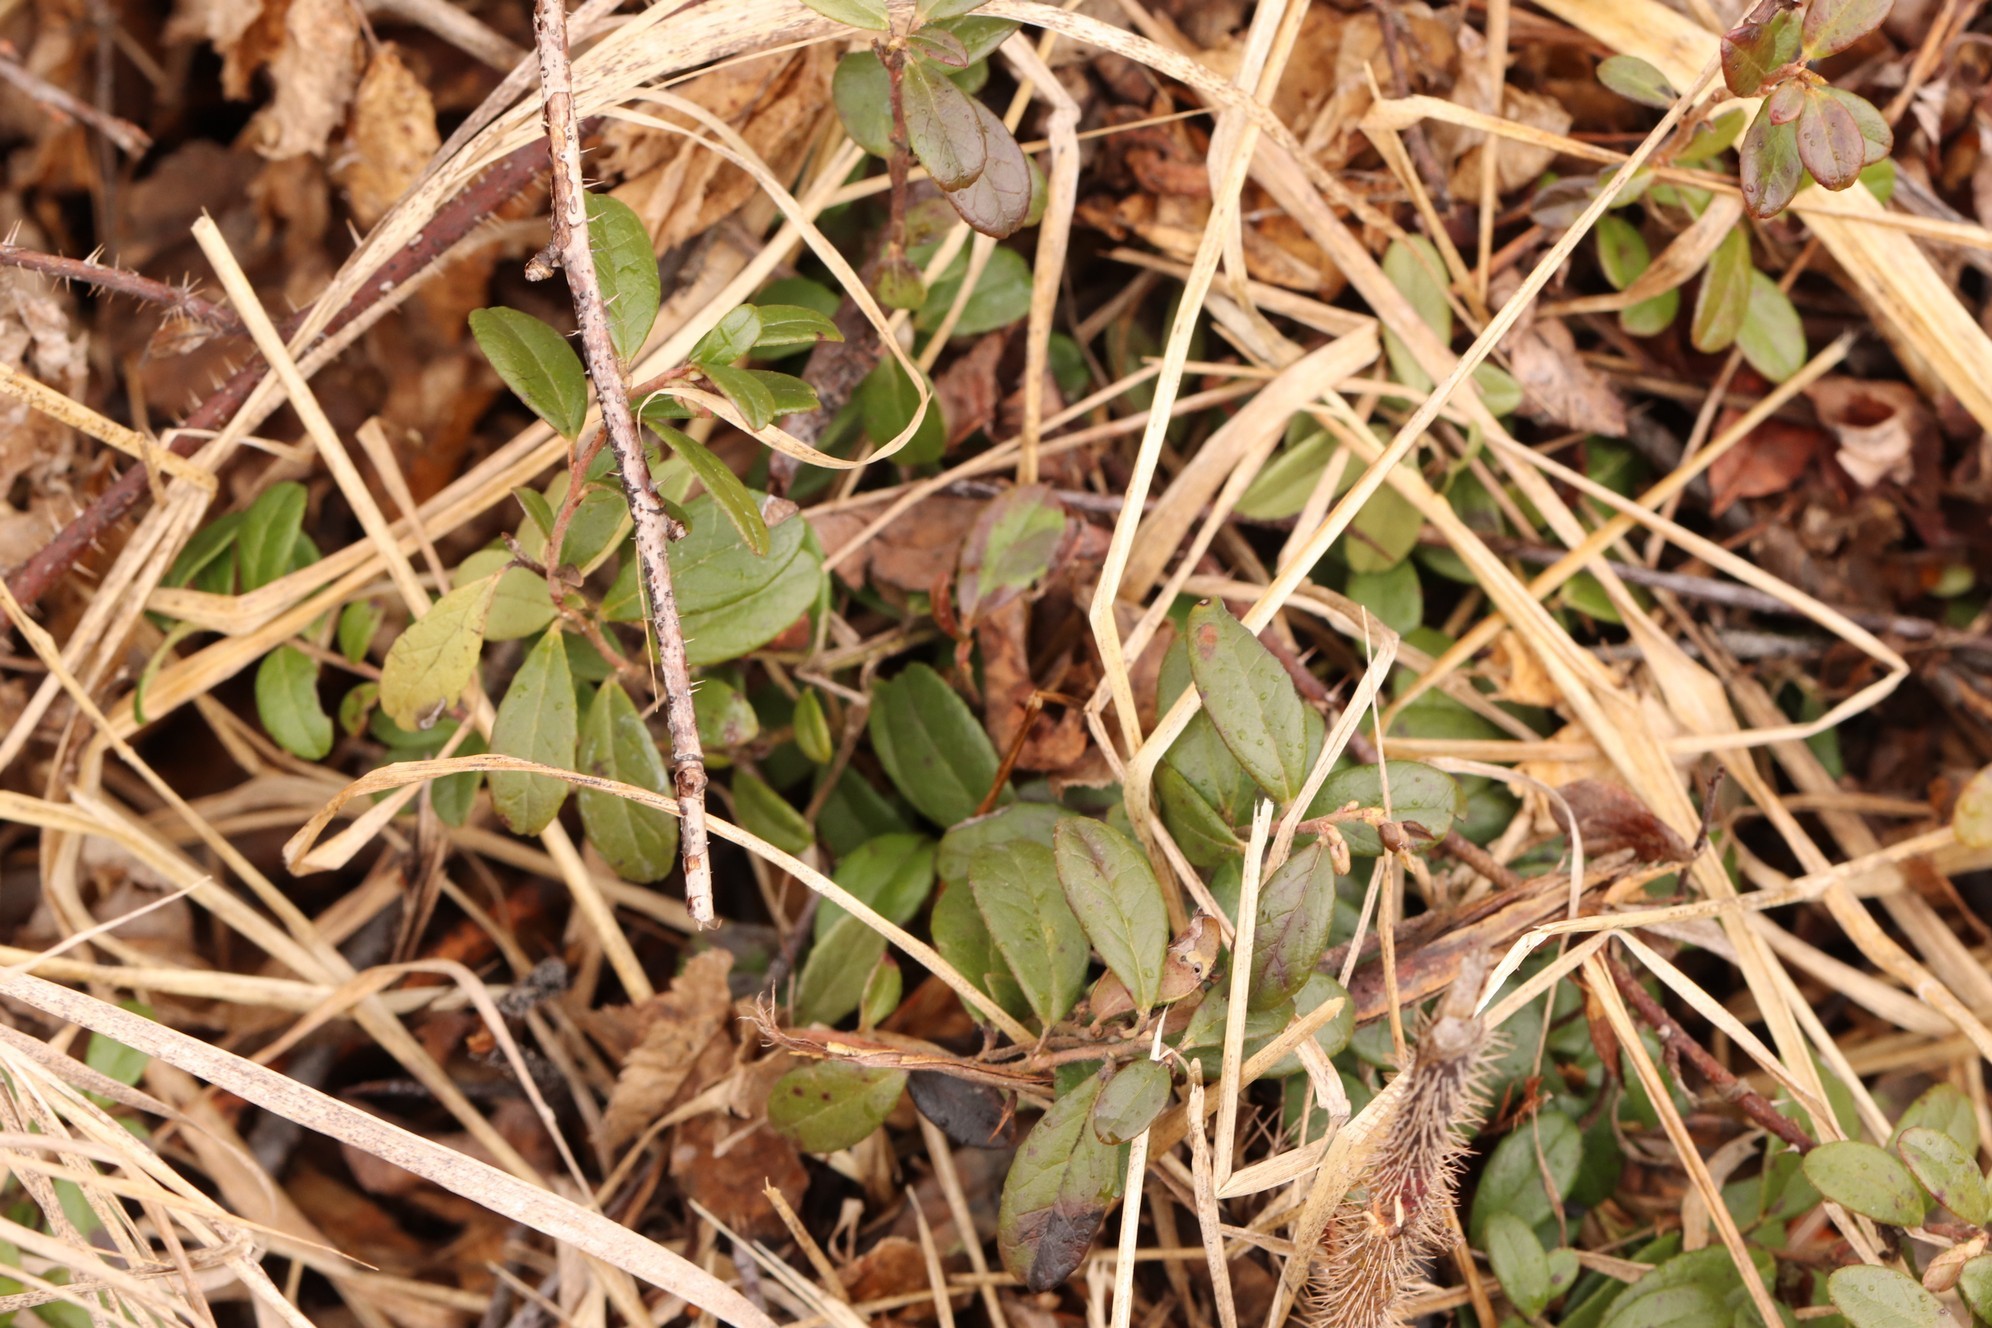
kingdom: Plantae
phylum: Tracheophyta
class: Magnoliopsida
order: Ericales
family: Ericaceae
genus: Vaccinium
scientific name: Vaccinium vitis-idaea
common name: Cowberry
